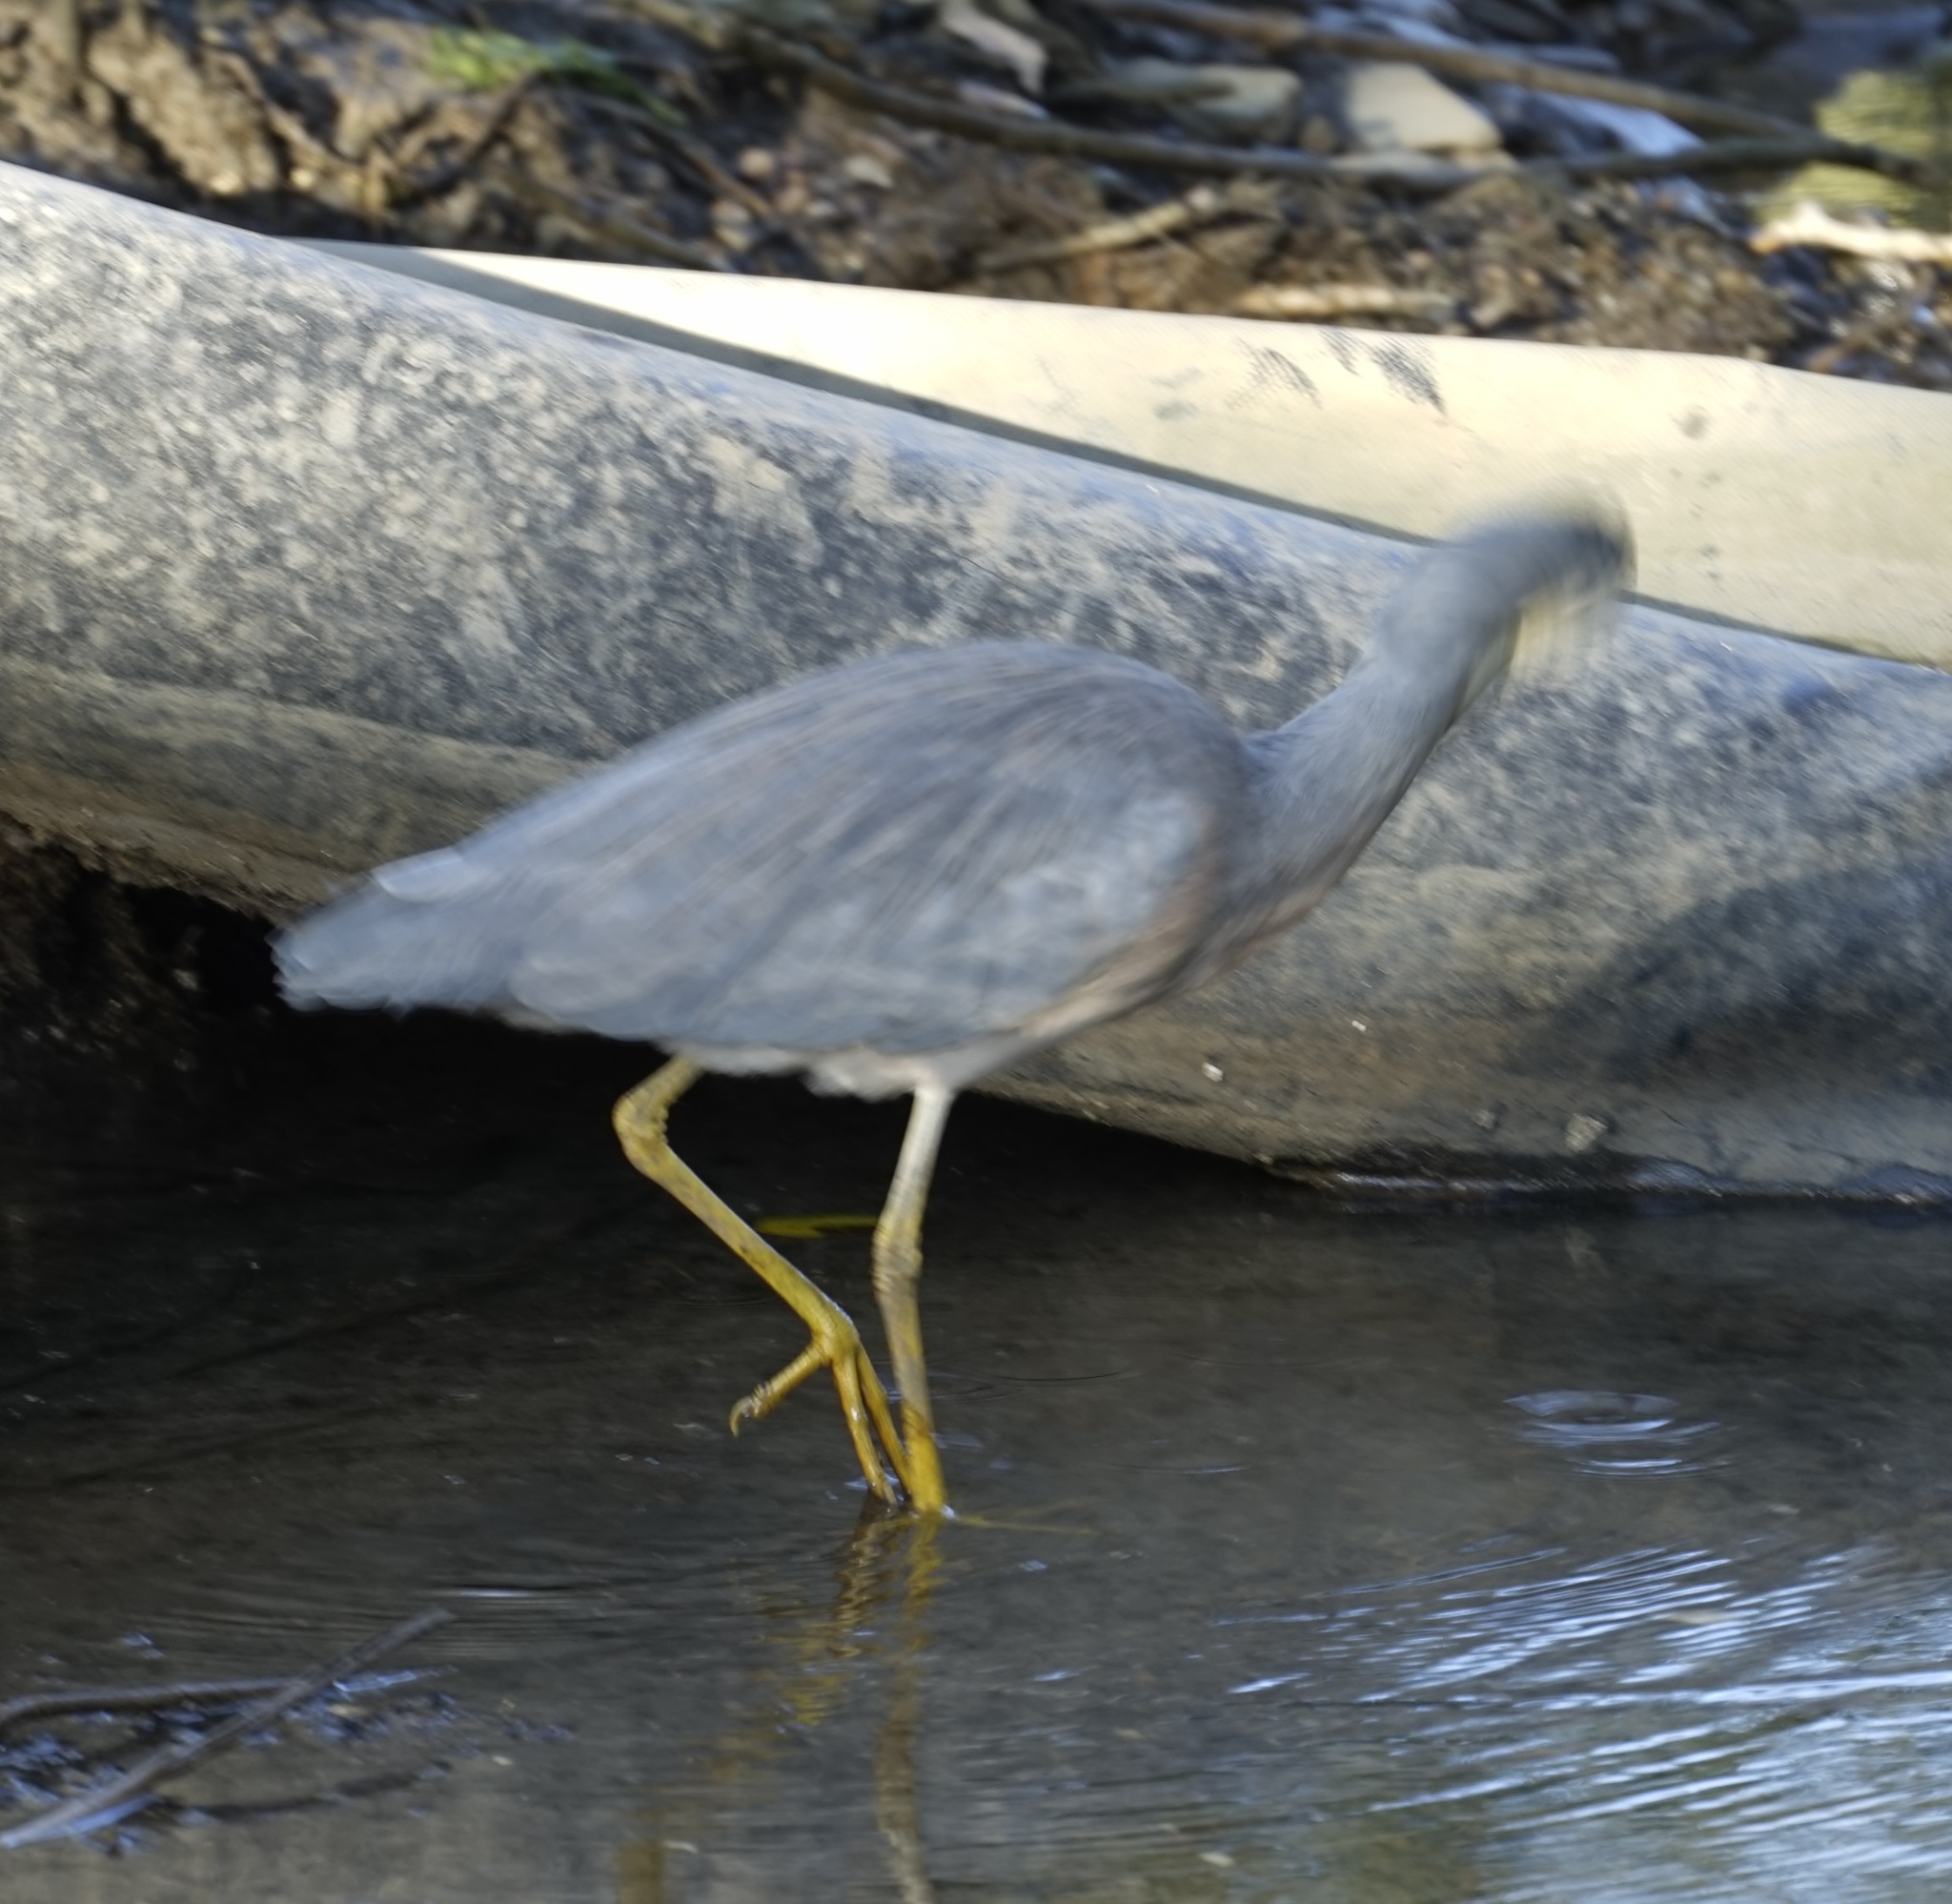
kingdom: Animalia
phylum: Chordata
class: Aves
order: Pelecaniformes
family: Ardeidae
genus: Egretta
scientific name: Egretta novaehollandiae
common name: White-faced heron
